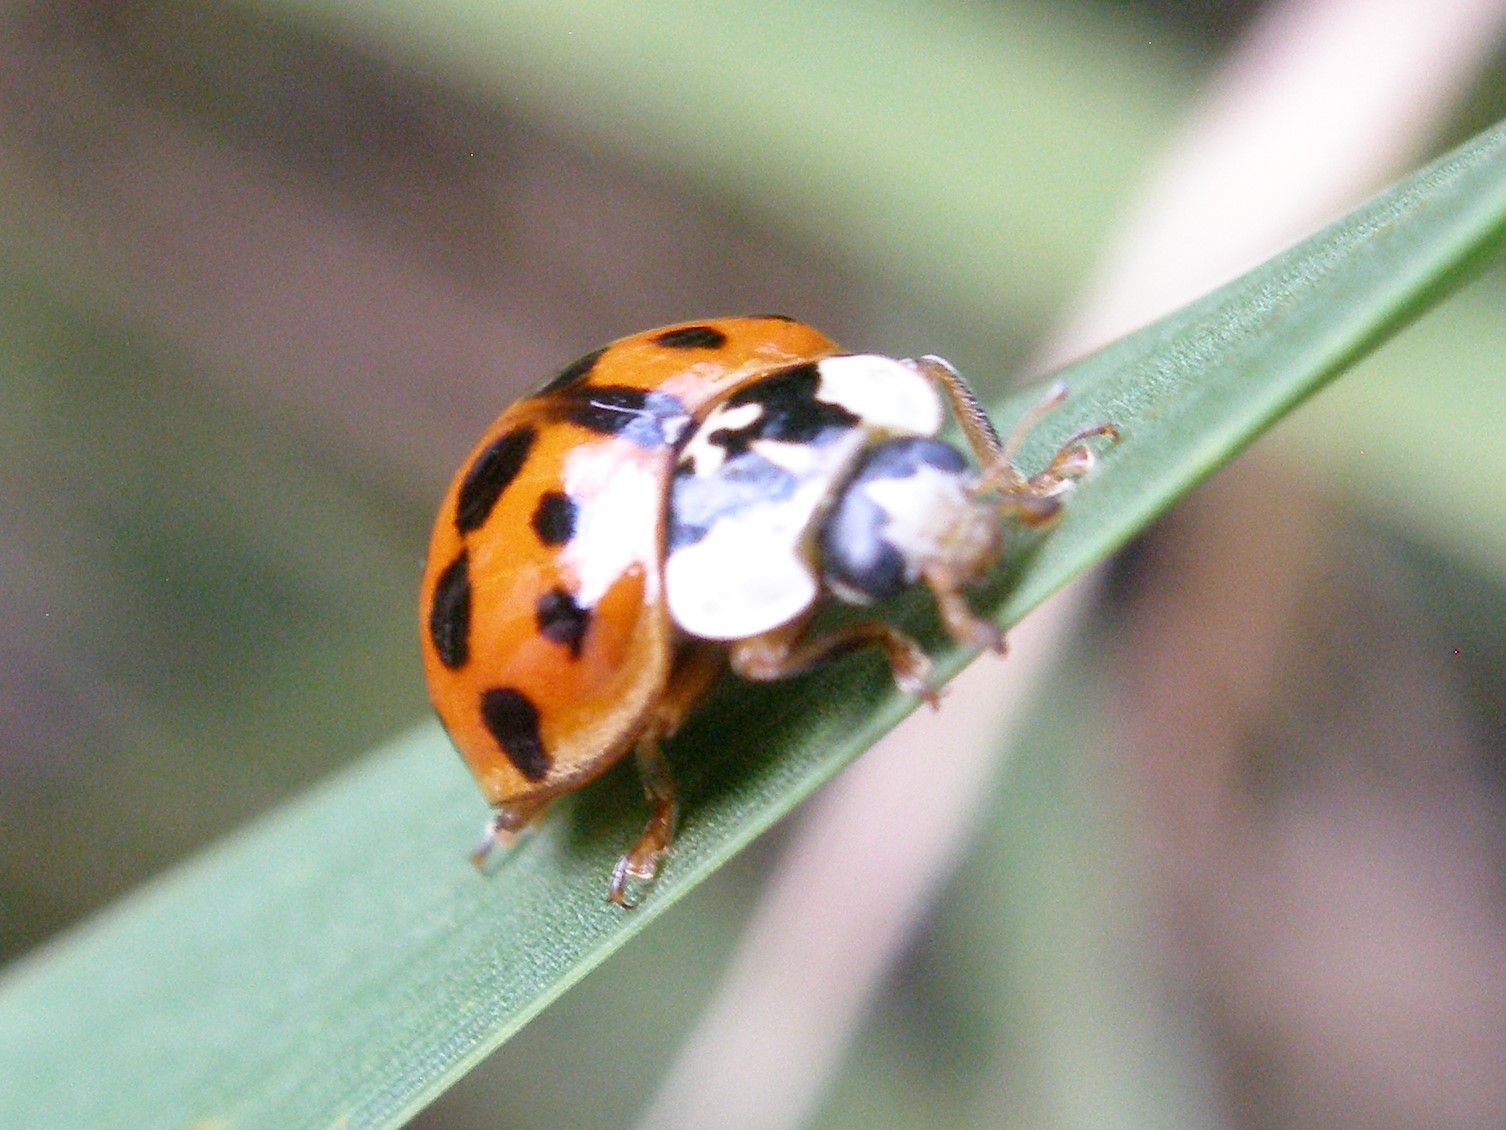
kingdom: Animalia
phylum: Arthropoda
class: Insecta
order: Coleoptera
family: Coccinellidae
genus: Harmonia
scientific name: Harmonia axyridis
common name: Harlequin ladybird
